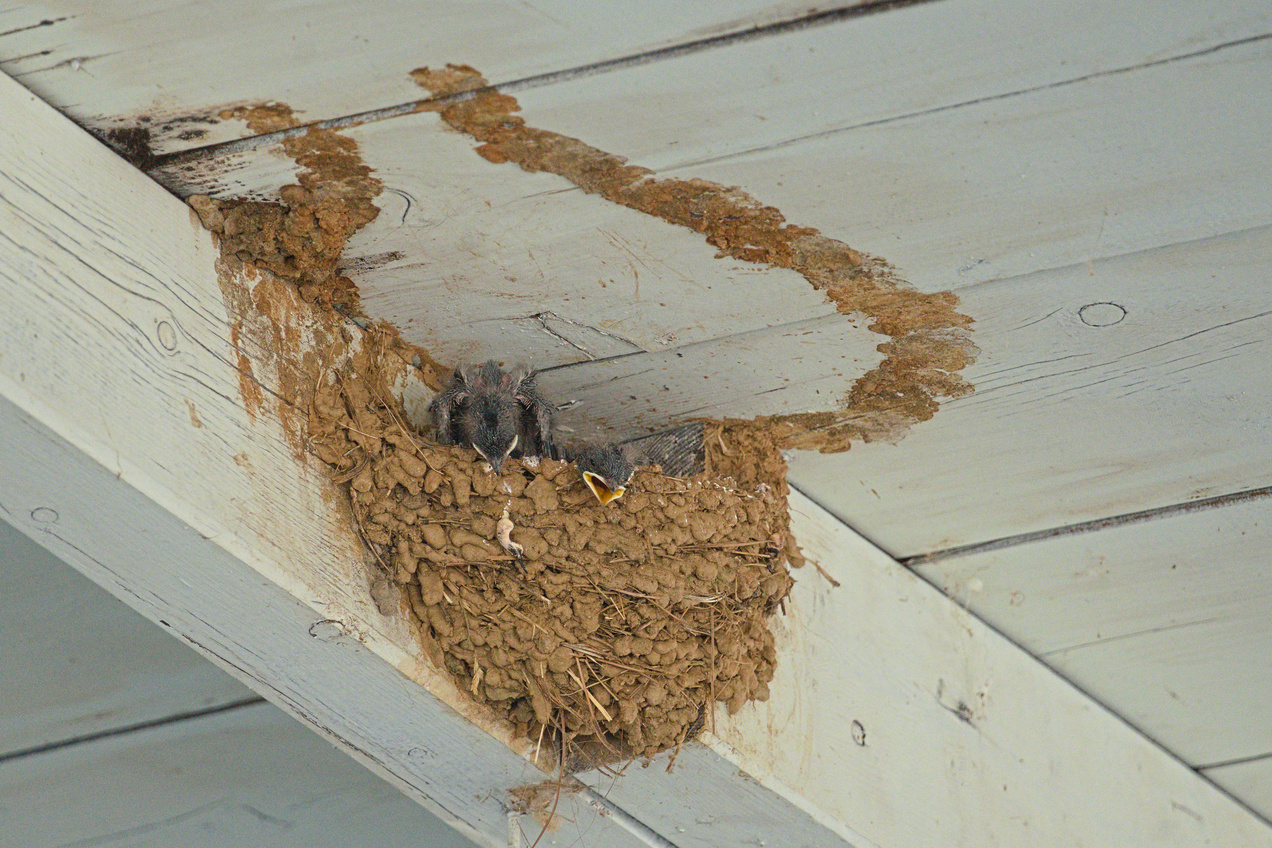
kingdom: Animalia
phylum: Chordata
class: Aves
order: Passeriformes
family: Hirundinidae
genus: Hirundo
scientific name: Hirundo rustica
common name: Barn swallow
